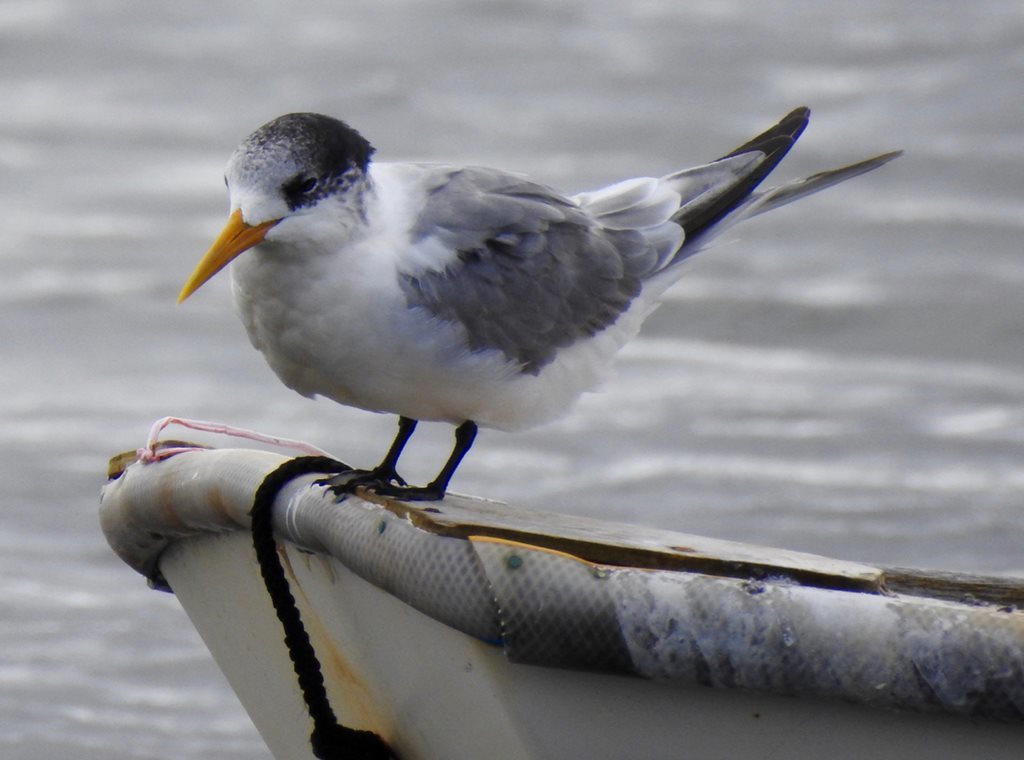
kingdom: Animalia
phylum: Chordata
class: Aves
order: Charadriiformes
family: Laridae
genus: Thalasseus
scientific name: Thalasseus bergii
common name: Greater crested tern
